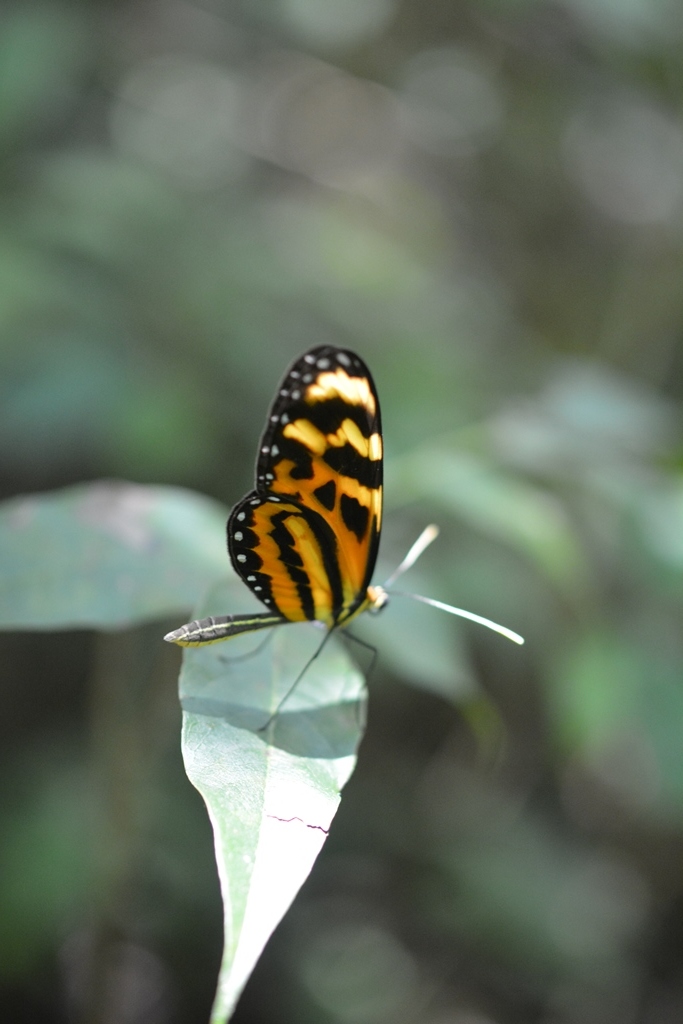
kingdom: Animalia
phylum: Arthropoda
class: Insecta
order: Lepidoptera
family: Nymphalidae
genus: Mechanitis
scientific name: Mechanitis lysimnia
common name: Lysimnia tigerwing
